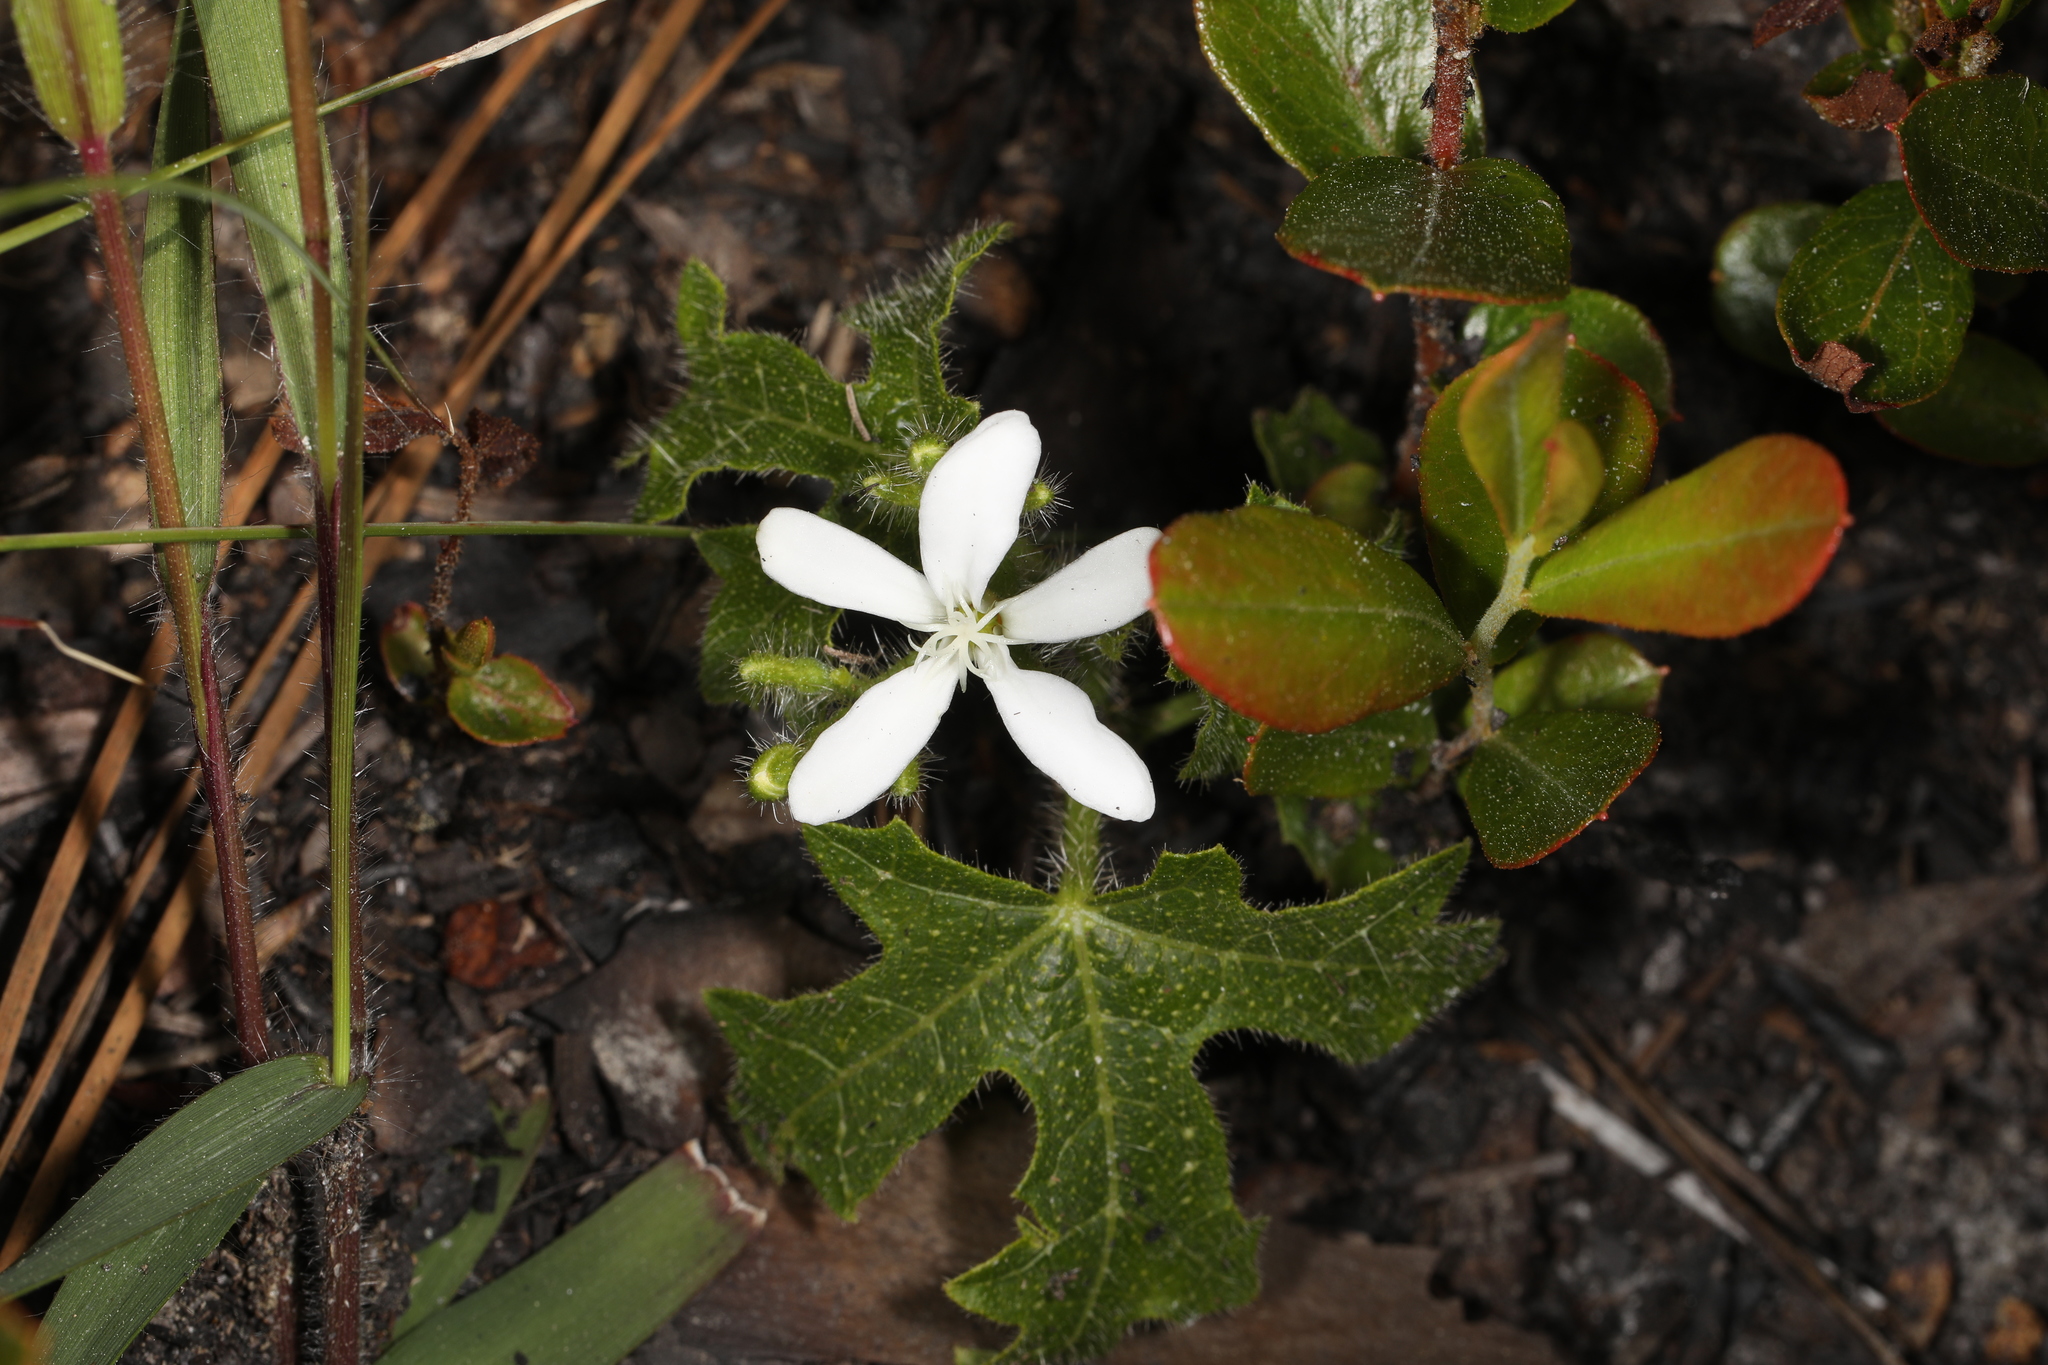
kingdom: Plantae
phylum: Tracheophyta
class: Magnoliopsida
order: Malpighiales
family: Euphorbiaceae
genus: Cnidoscolus
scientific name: Cnidoscolus stimulosus
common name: Bull-nettle
